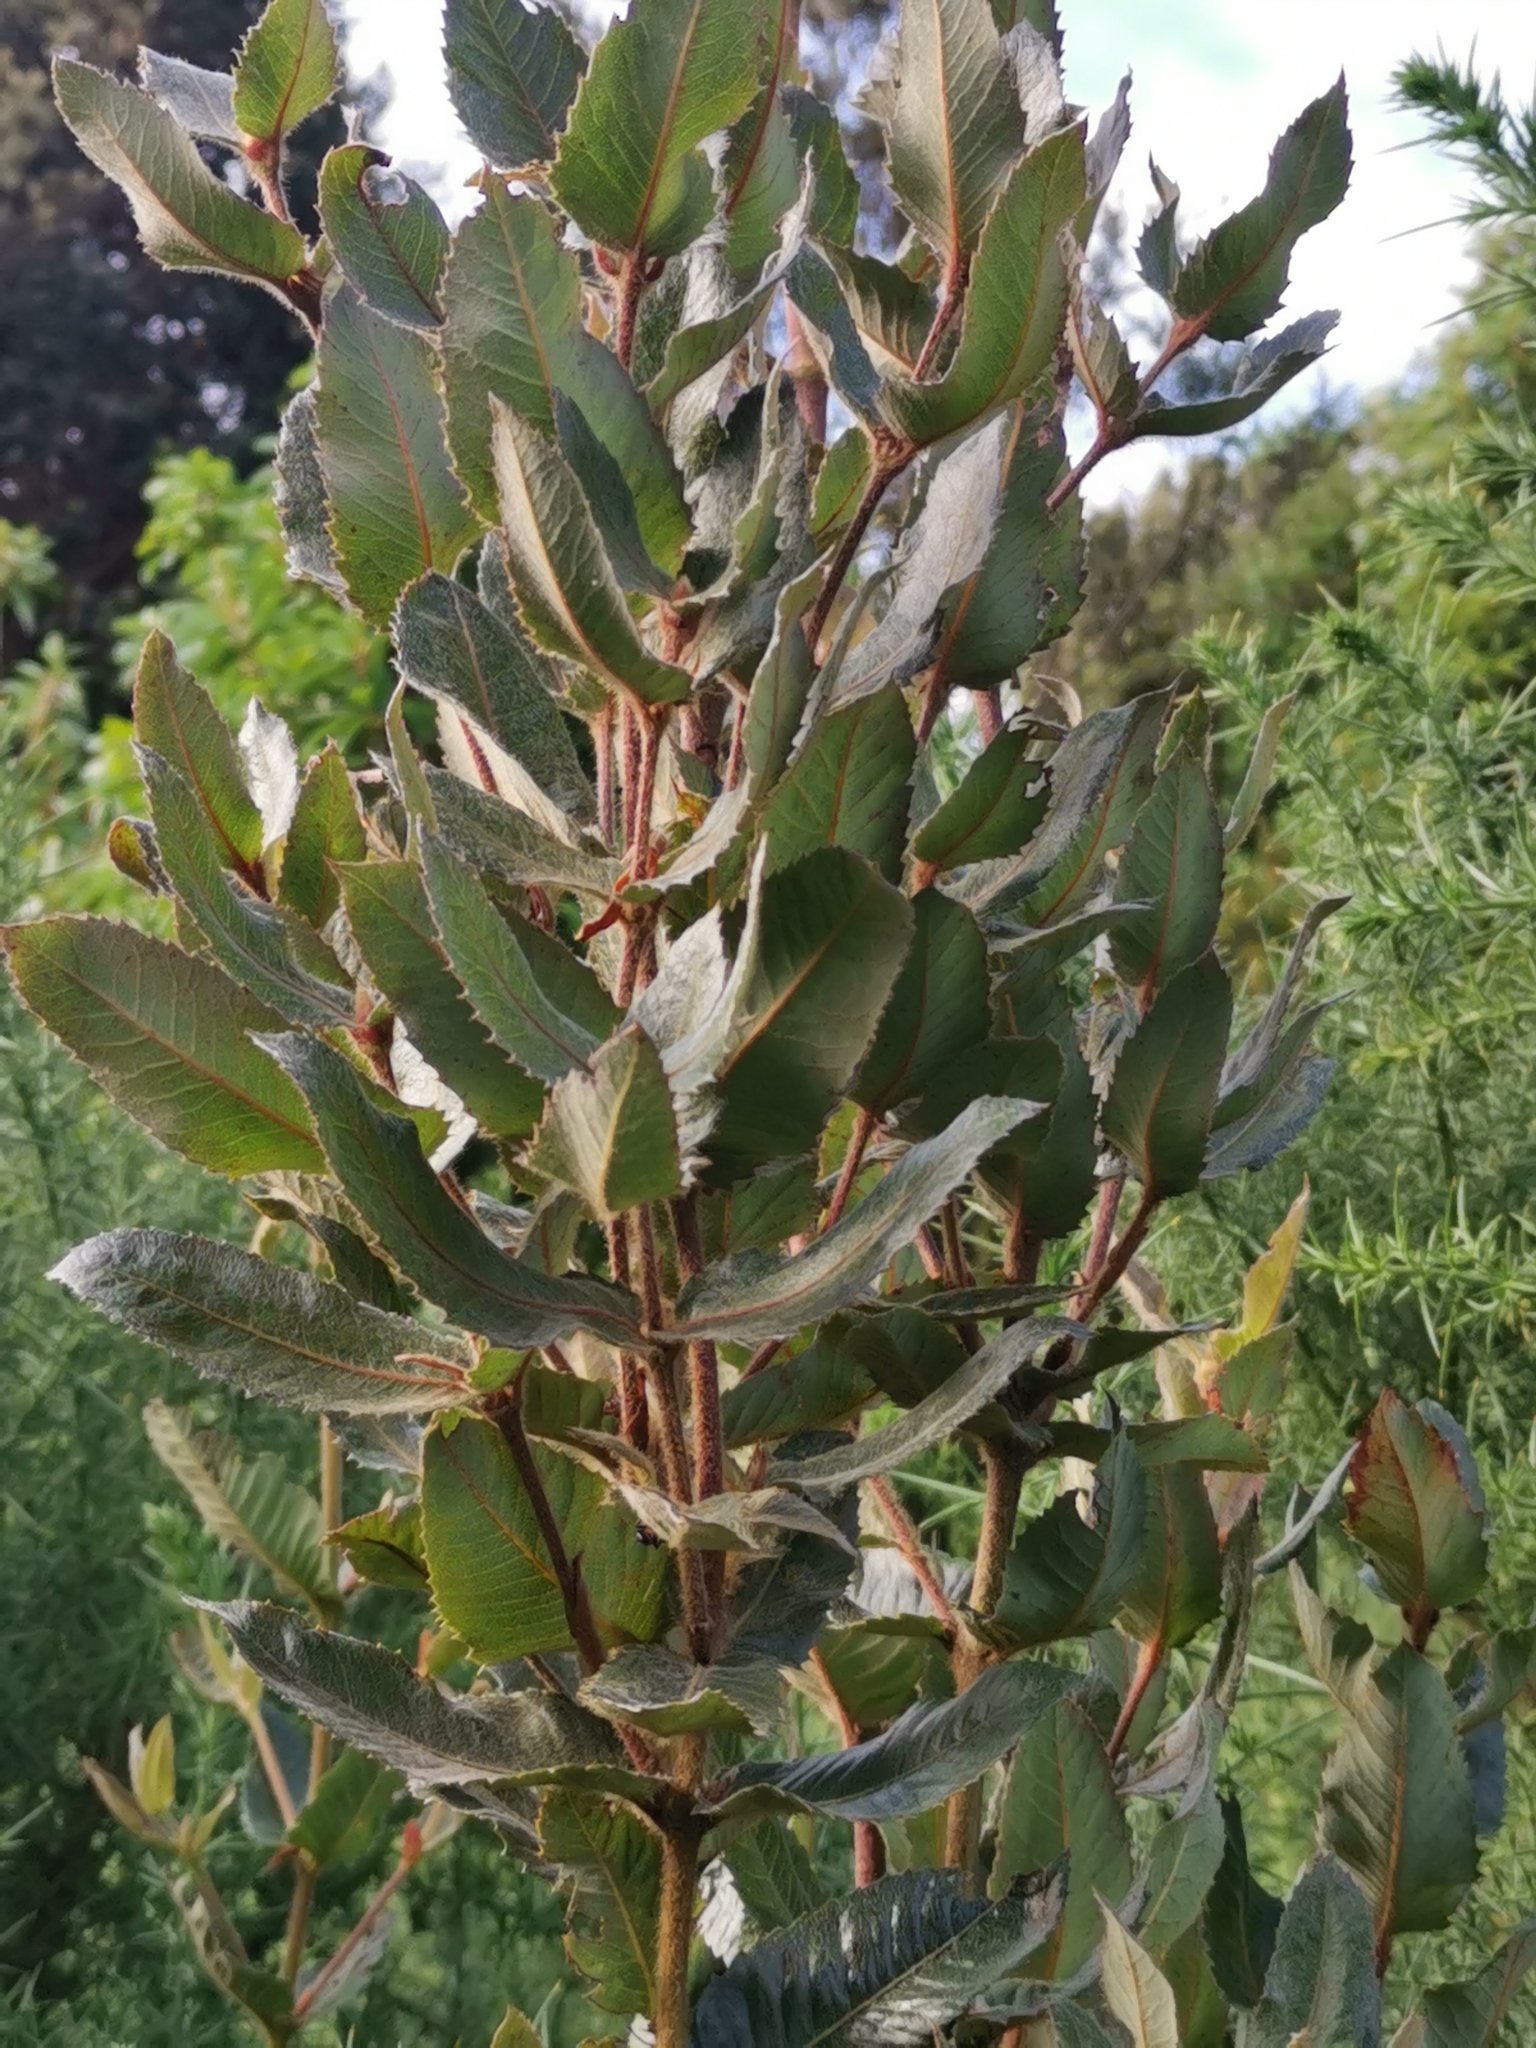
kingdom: Plantae
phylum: Tracheophyta
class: Magnoliopsida
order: Oxalidales
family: Cunoniaceae
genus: Eucryphia
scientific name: Eucryphia cordifolia
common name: Ulmo
